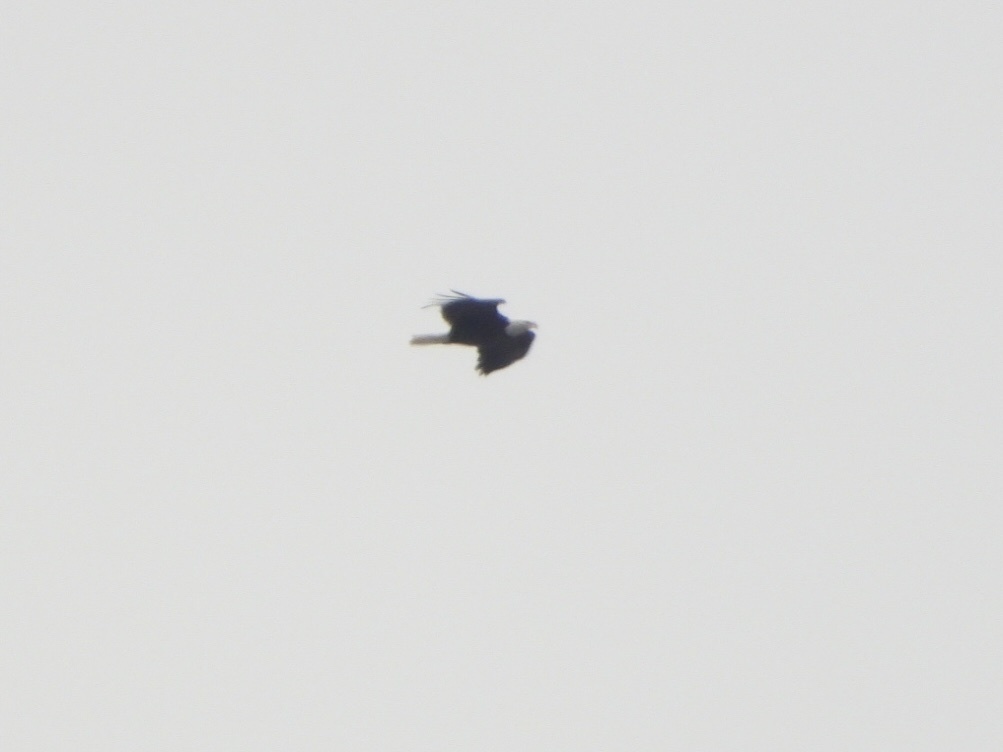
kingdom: Animalia
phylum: Chordata
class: Aves
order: Accipitriformes
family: Accipitridae
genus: Haliaeetus
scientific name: Haliaeetus leucocephalus
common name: Bald eagle
